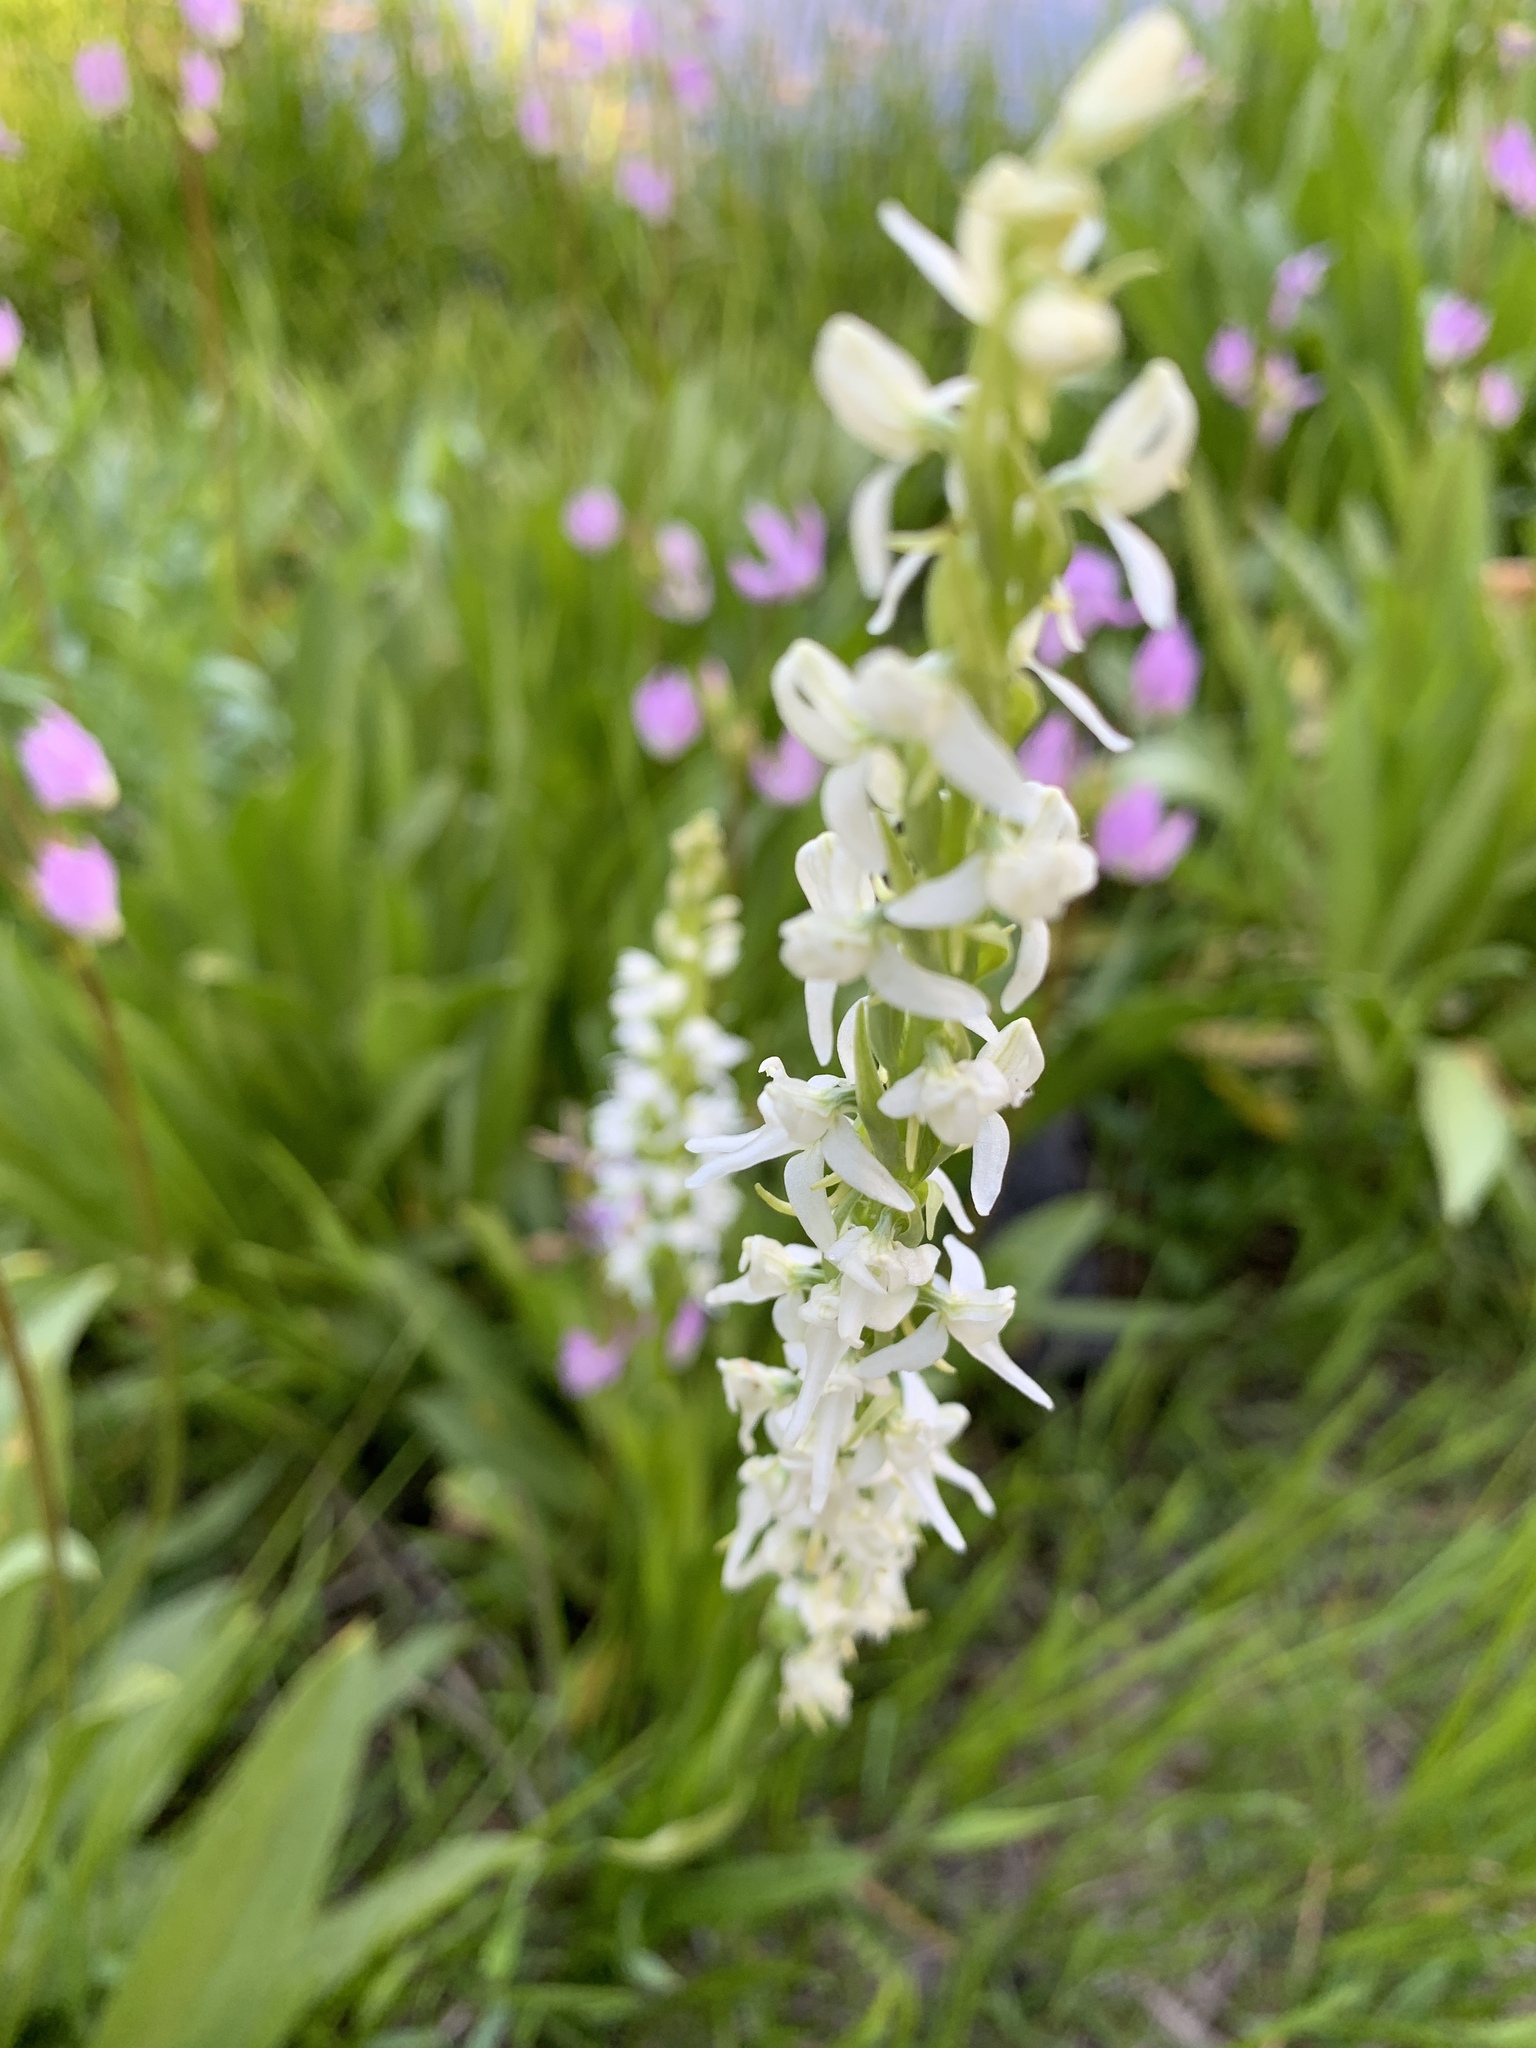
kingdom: Plantae
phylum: Tracheophyta
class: Liliopsida
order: Asparagales
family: Orchidaceae
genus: Platanthera
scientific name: Platanthera dilatata
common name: Bog candles
